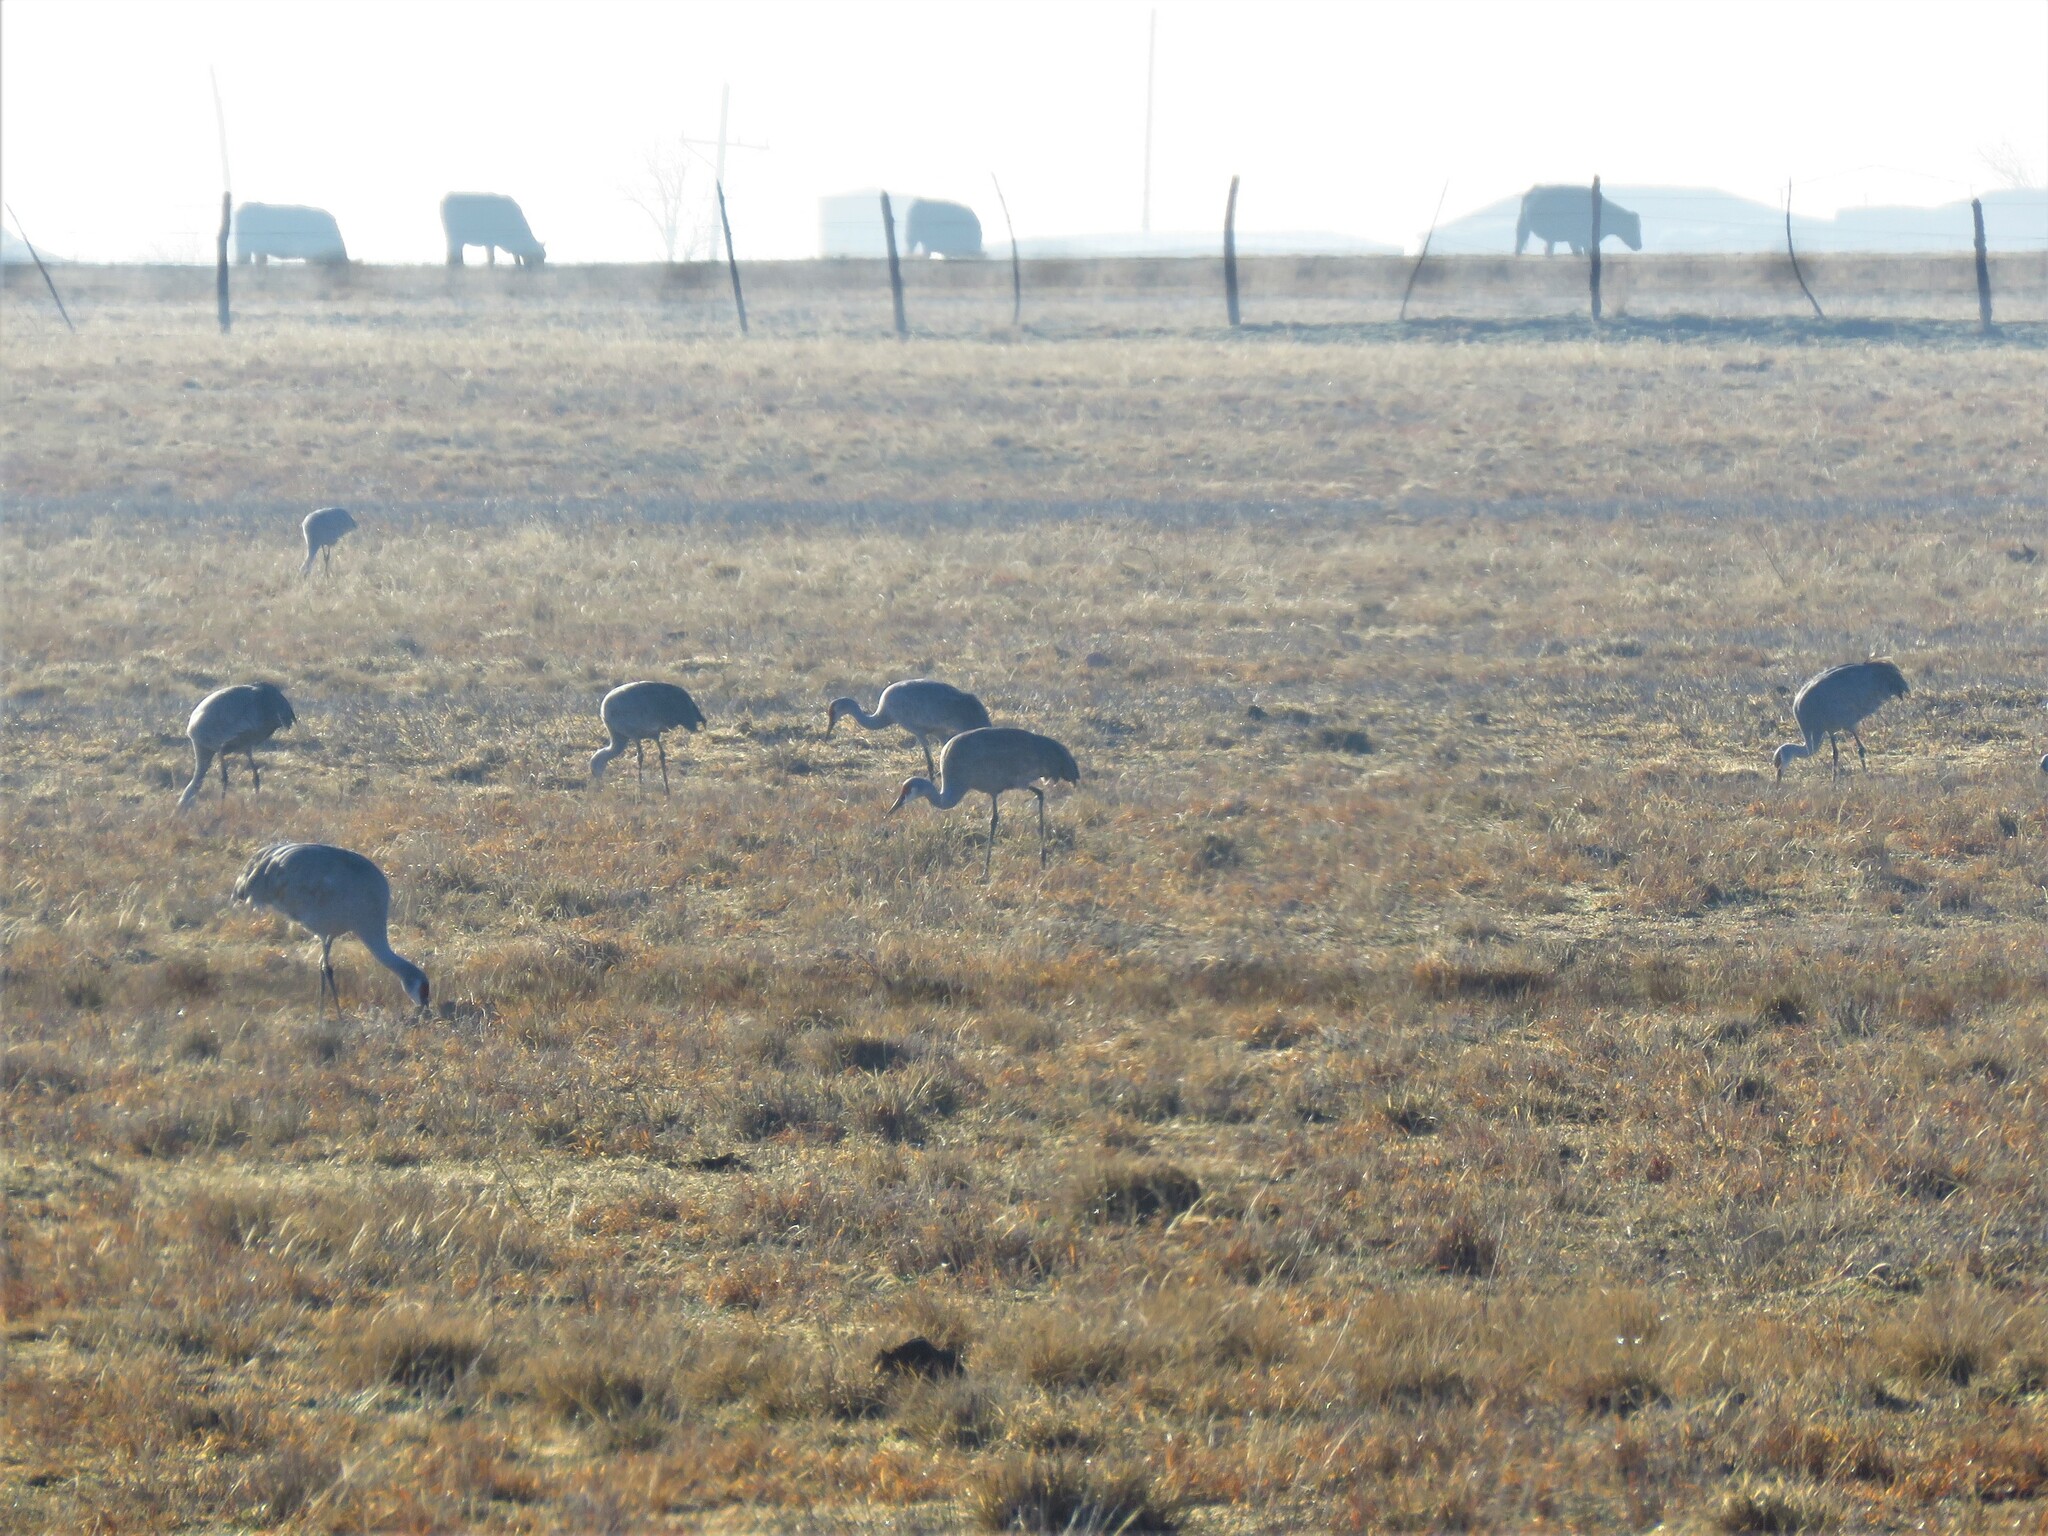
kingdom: Animalia
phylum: Chordata
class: Aves
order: Gruiformes
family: Gruidae
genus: Grus
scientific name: Grus canadensis
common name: Sandhill crane
